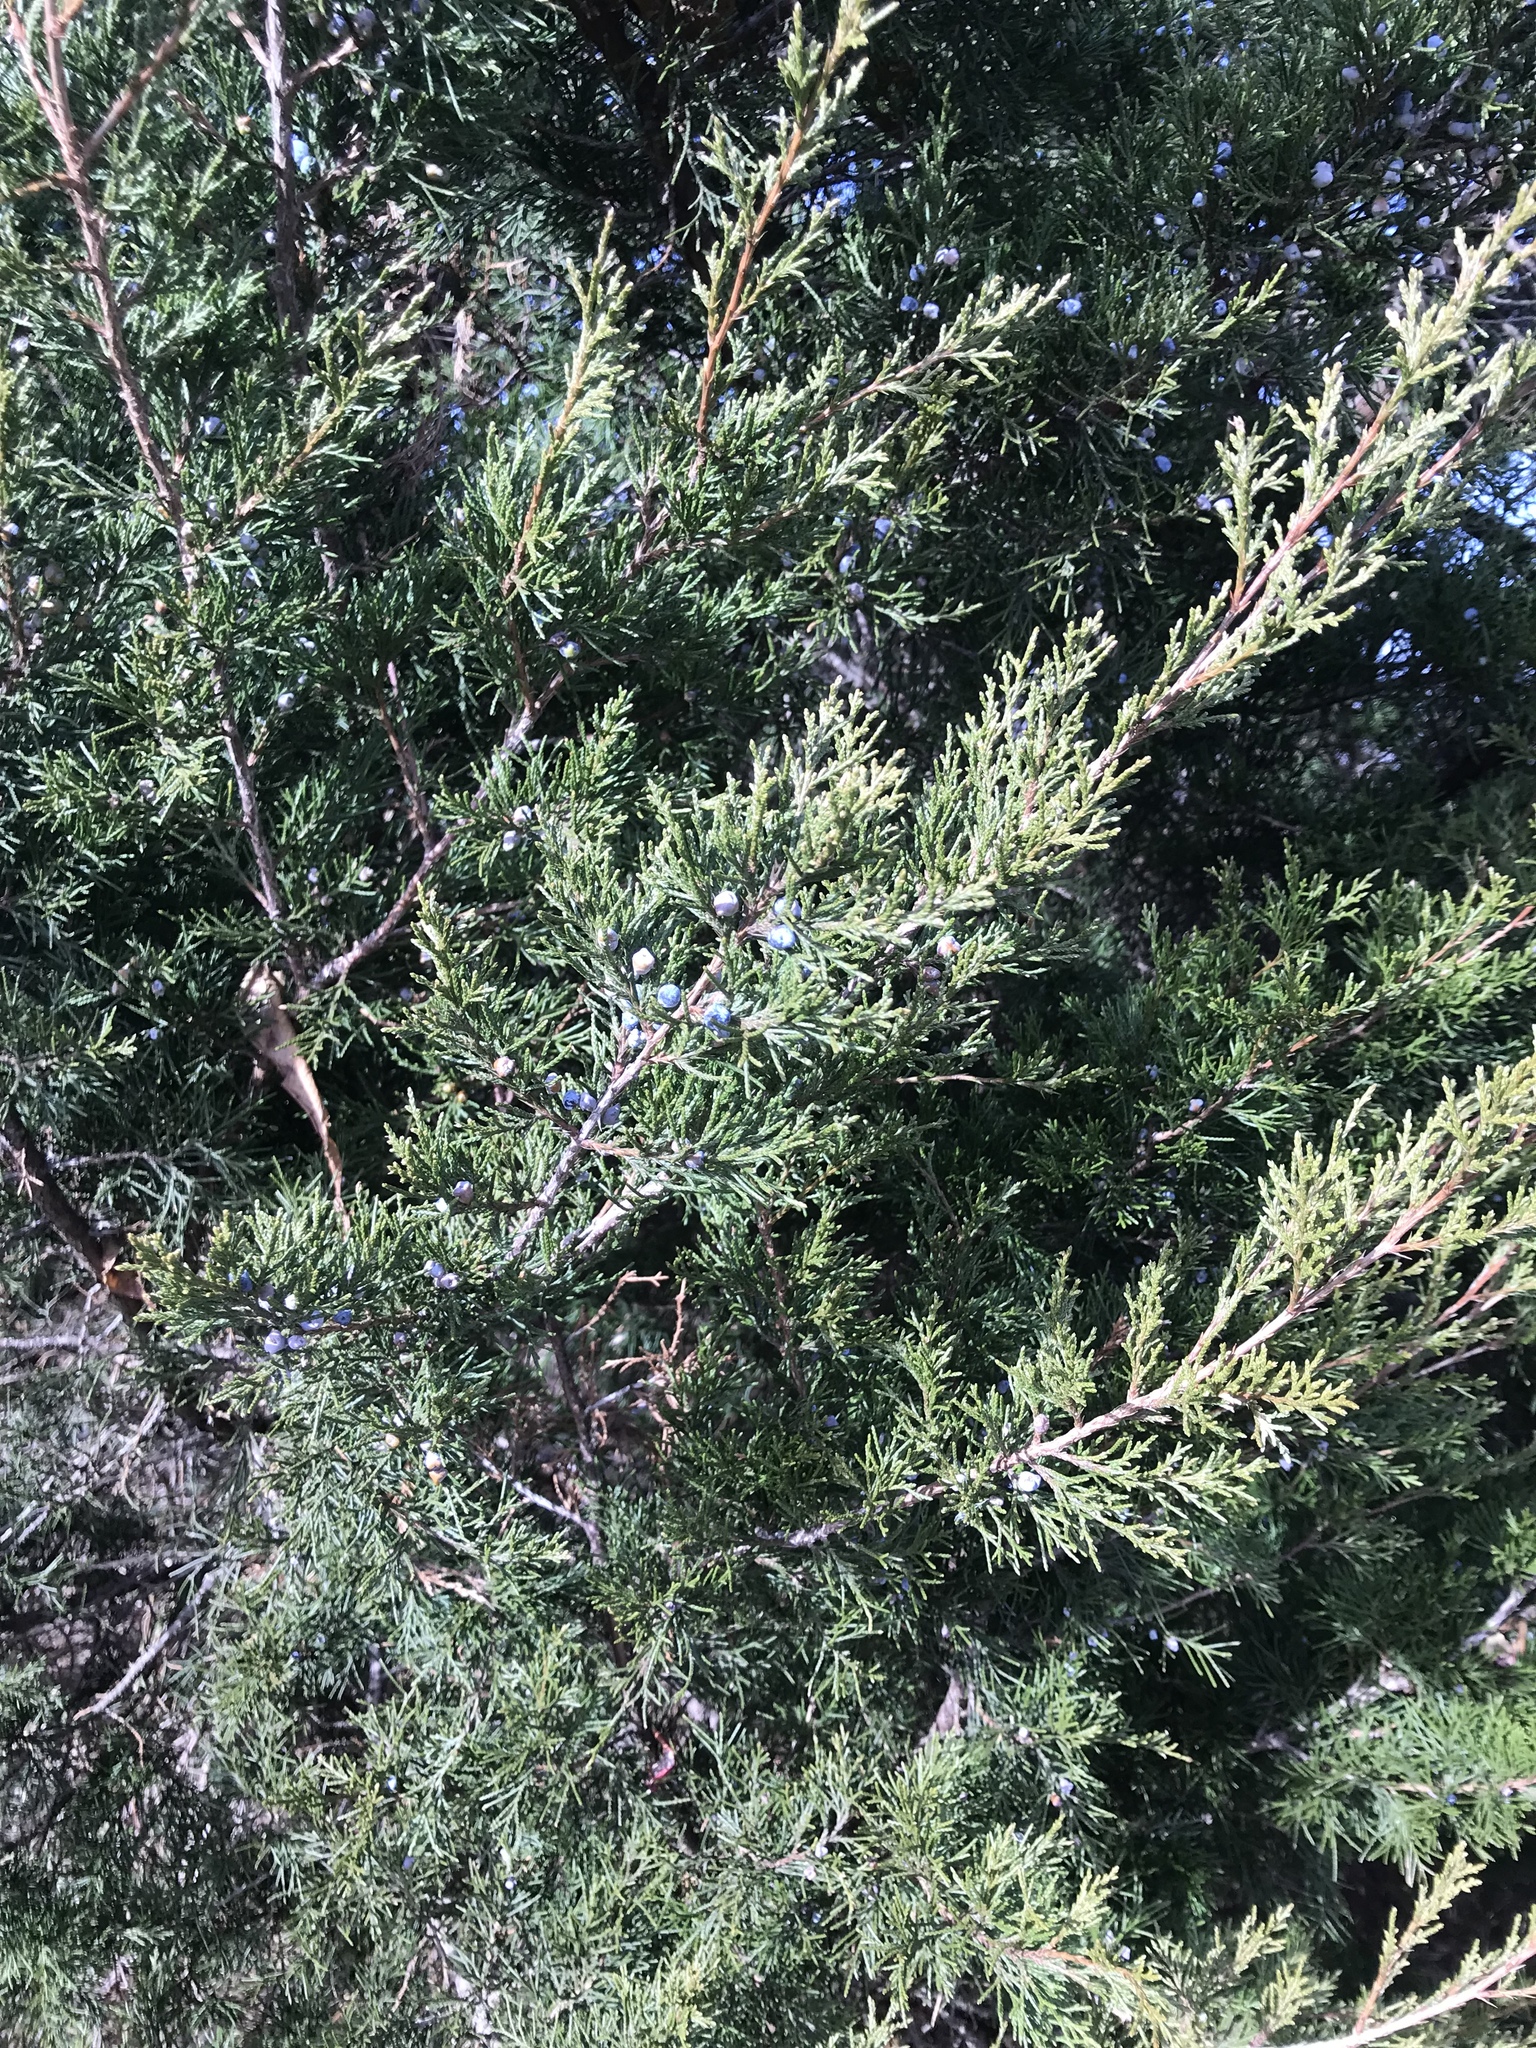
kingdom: Plantae
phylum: Tracheophyta
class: Pinopsida
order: Pinales
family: Cupressaceae
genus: Juniperus
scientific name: Juniperus virginiana
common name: Red juniper
